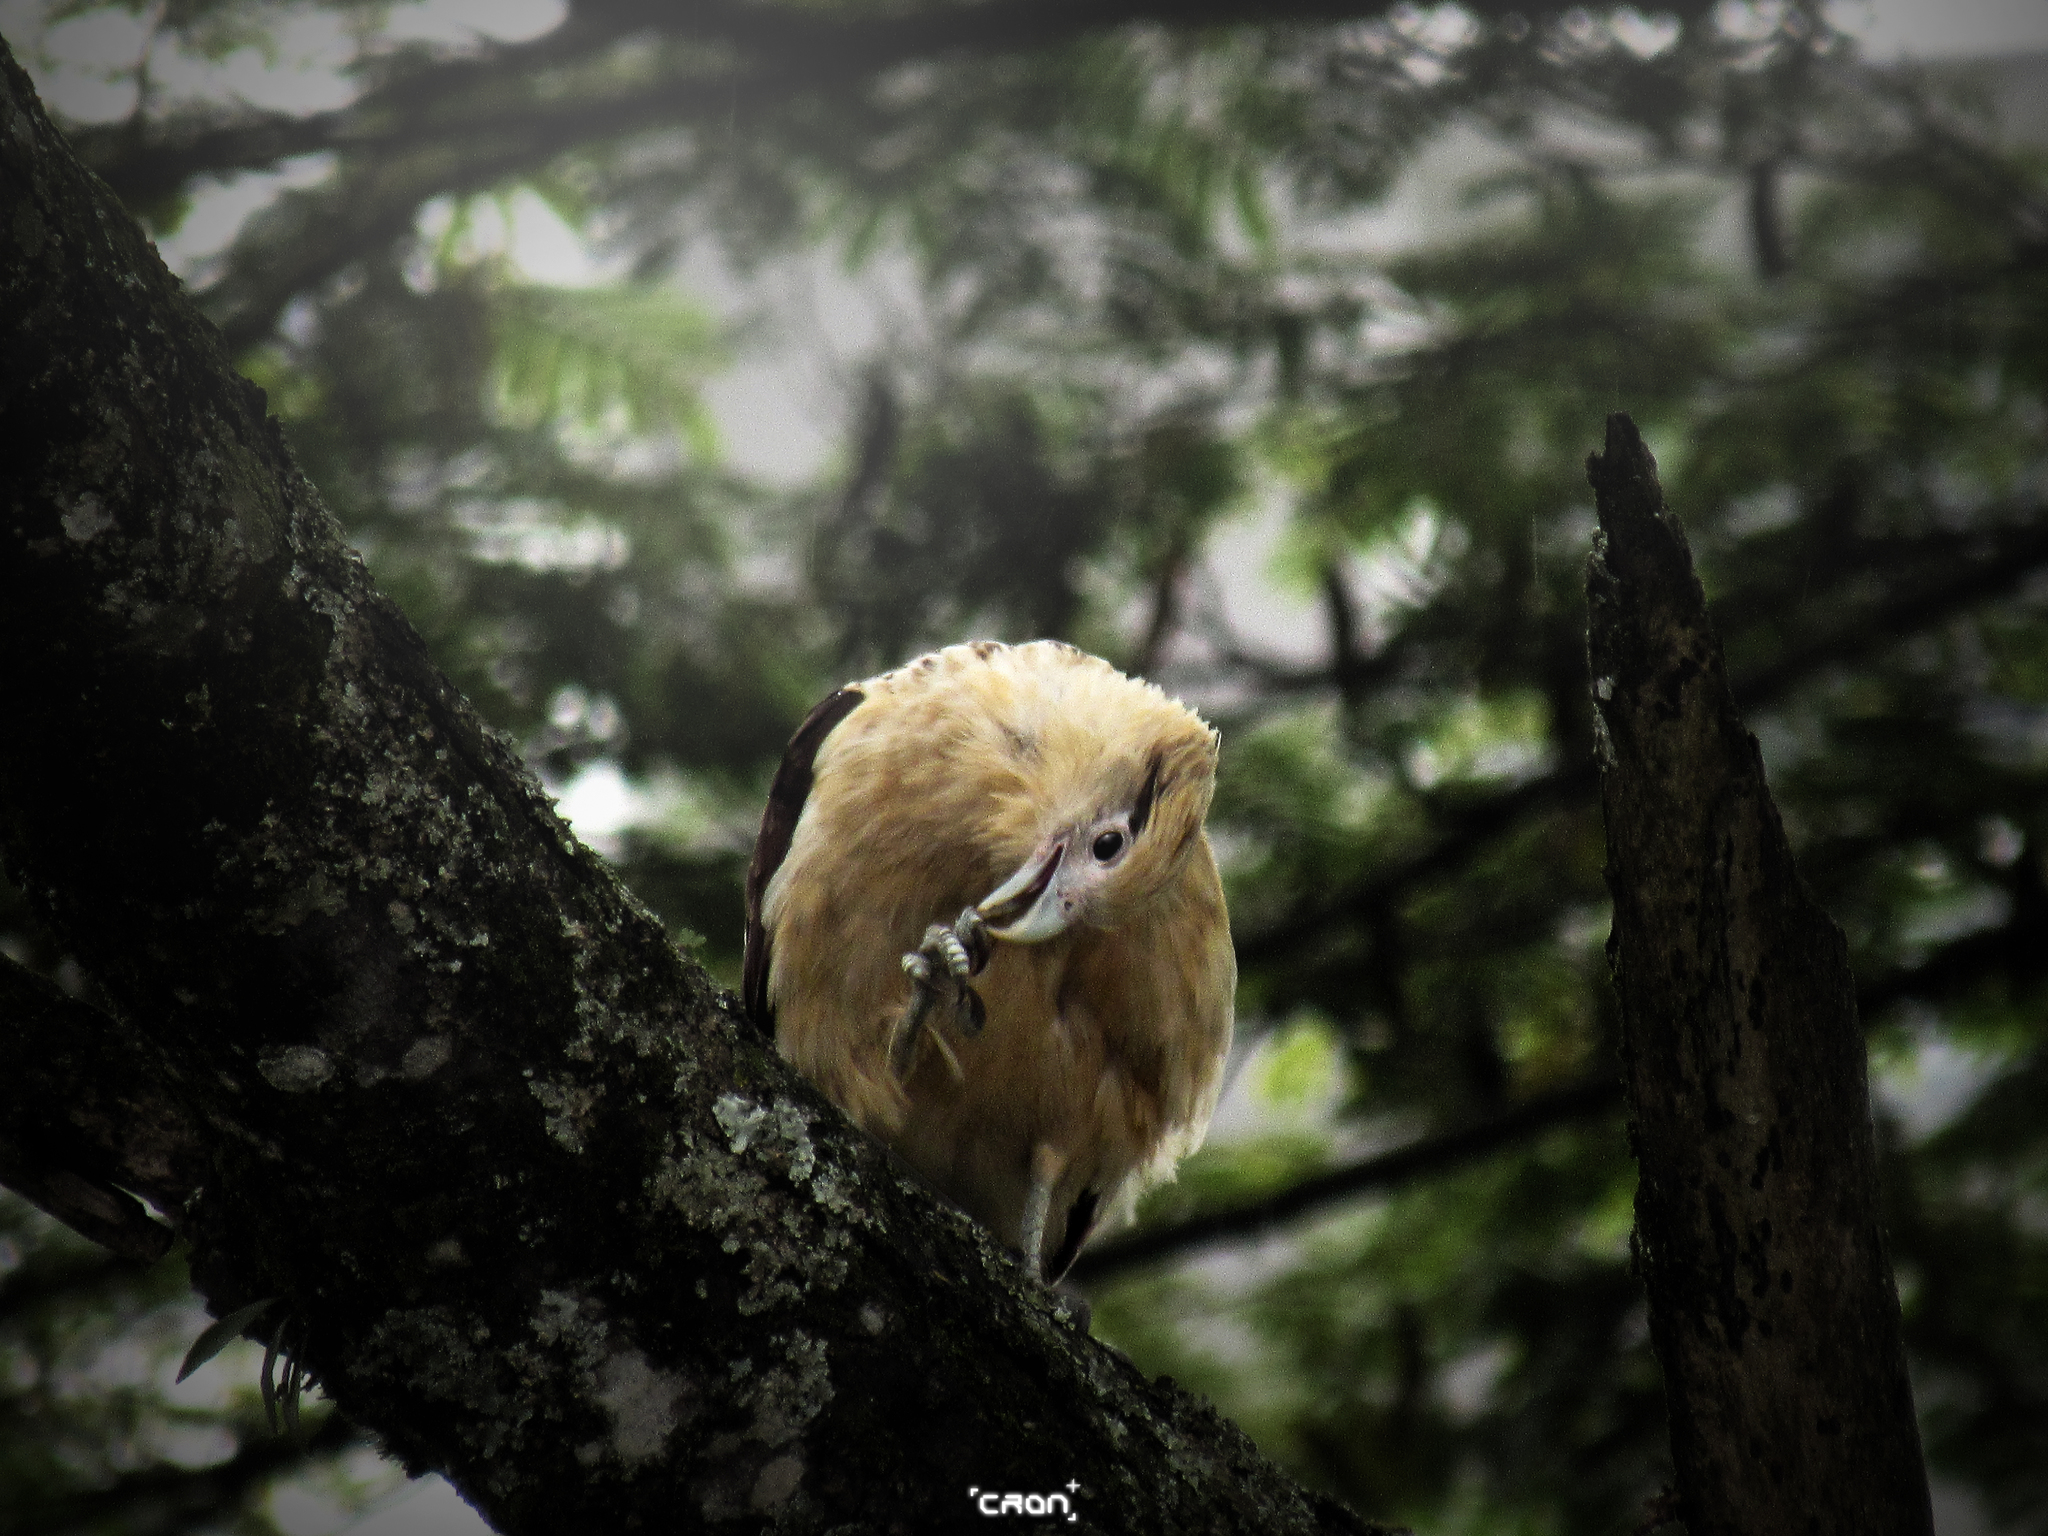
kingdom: Animalia
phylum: Chordata
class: Aves
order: Falconiformes
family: Falconidae
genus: Daptrius
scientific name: Daptrius
